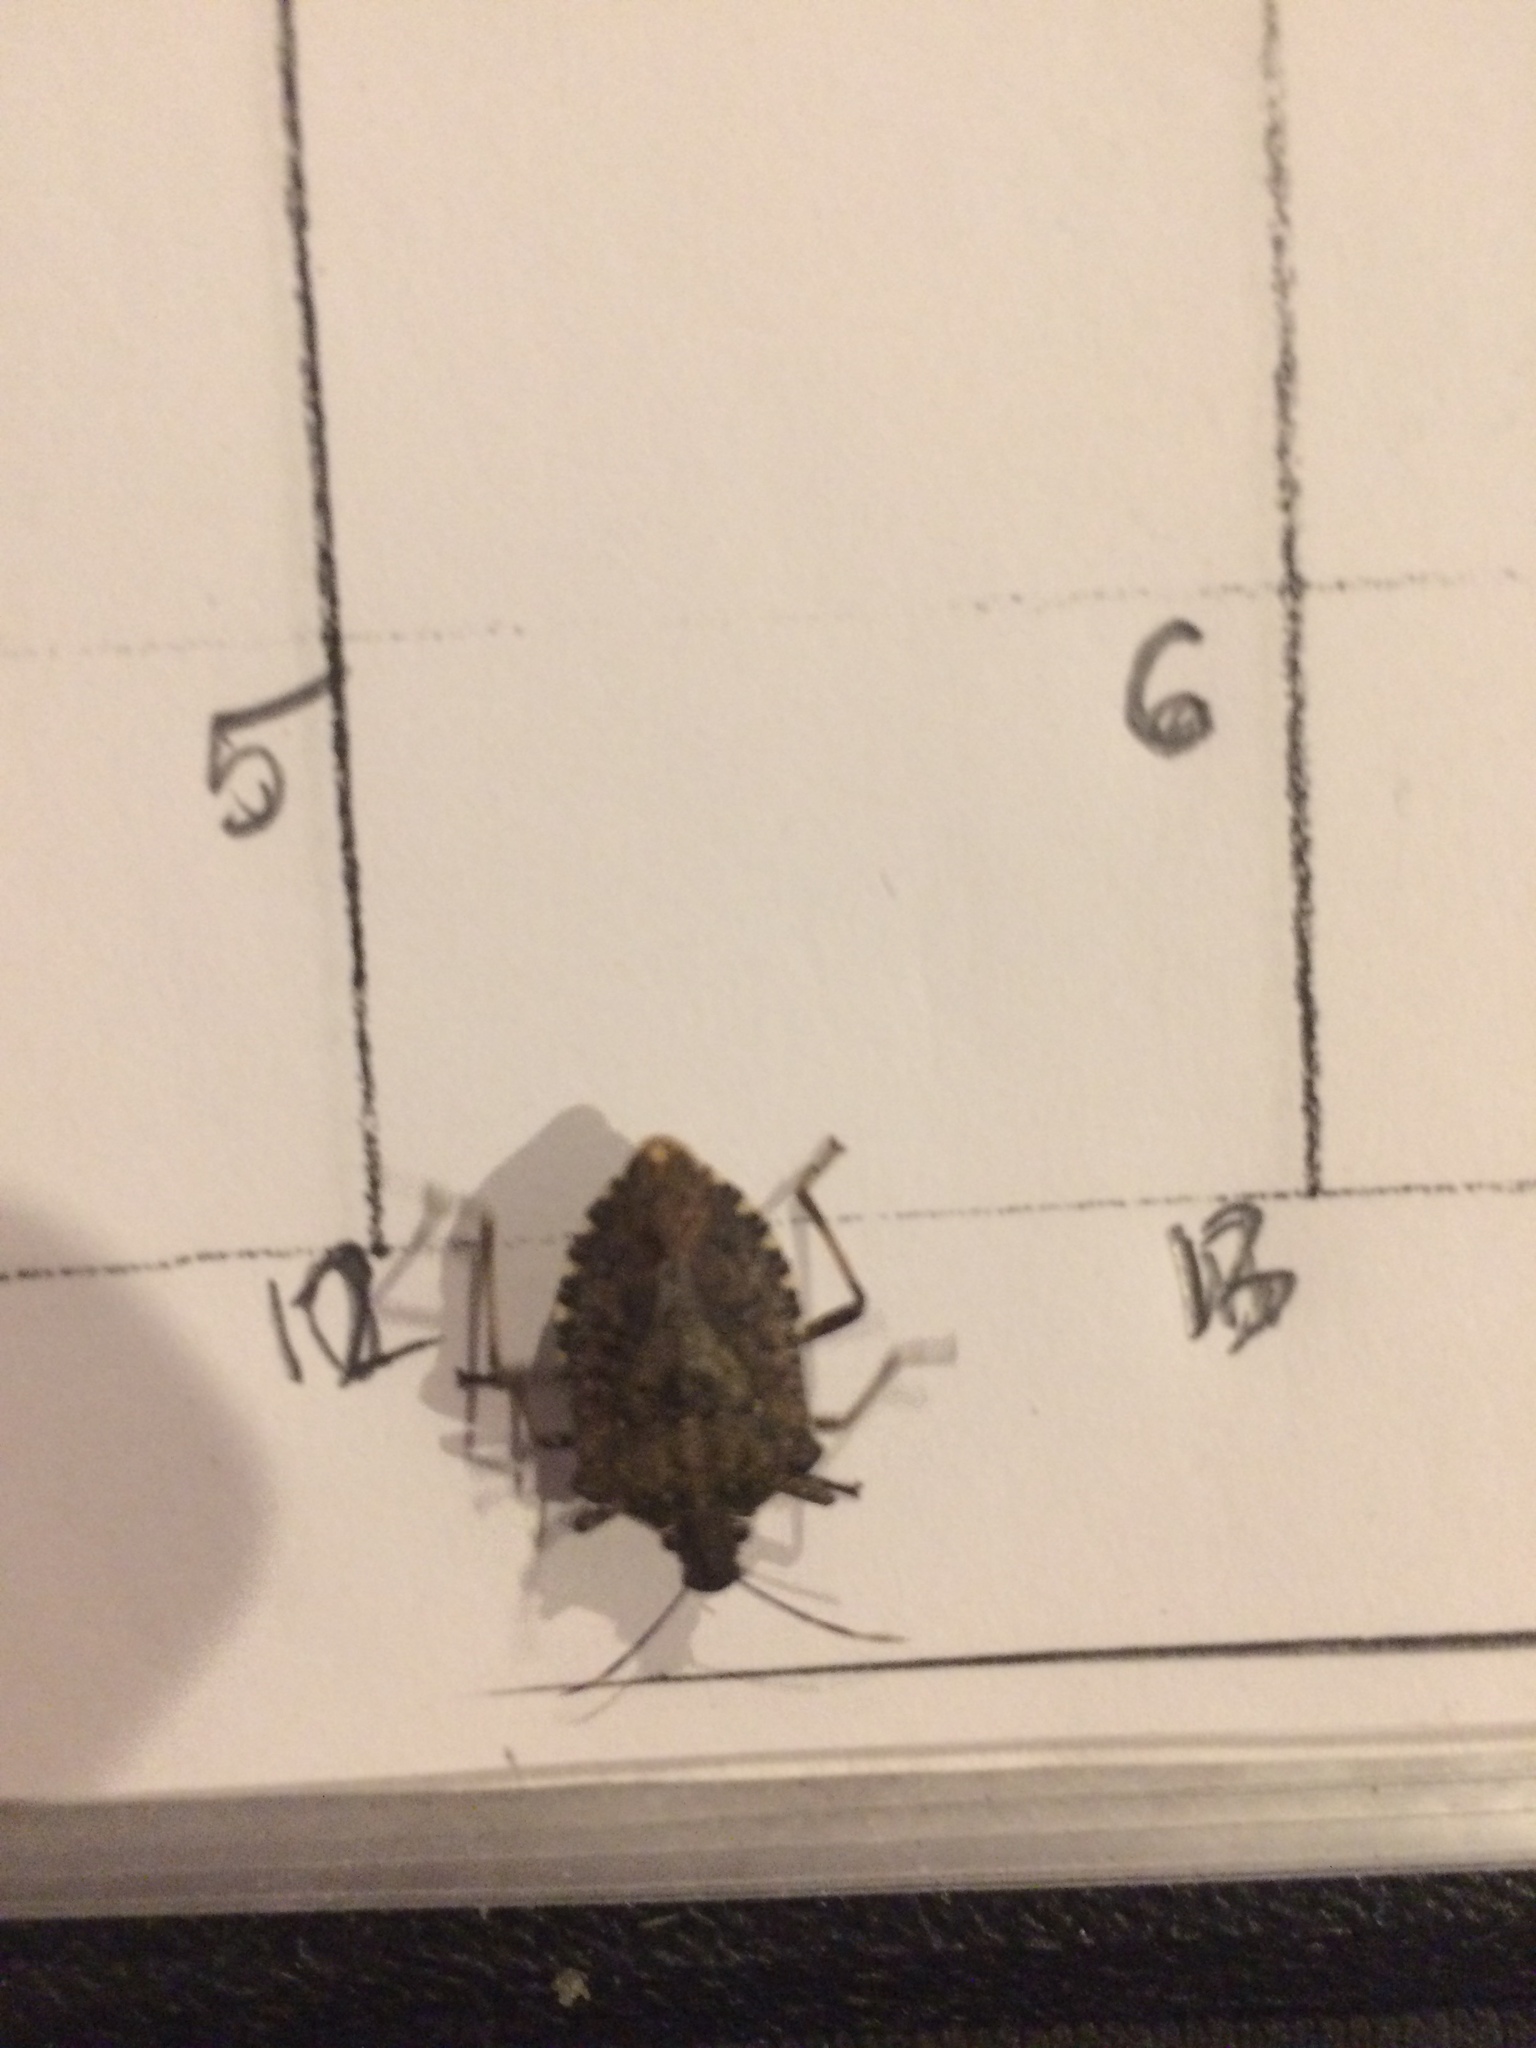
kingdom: Animalia
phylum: Arthropoda
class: Insecta
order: Hemiptera
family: Pentatomidae
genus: Halyomorpha
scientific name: Halyomorpha halys
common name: Brown marmorated stink bug
